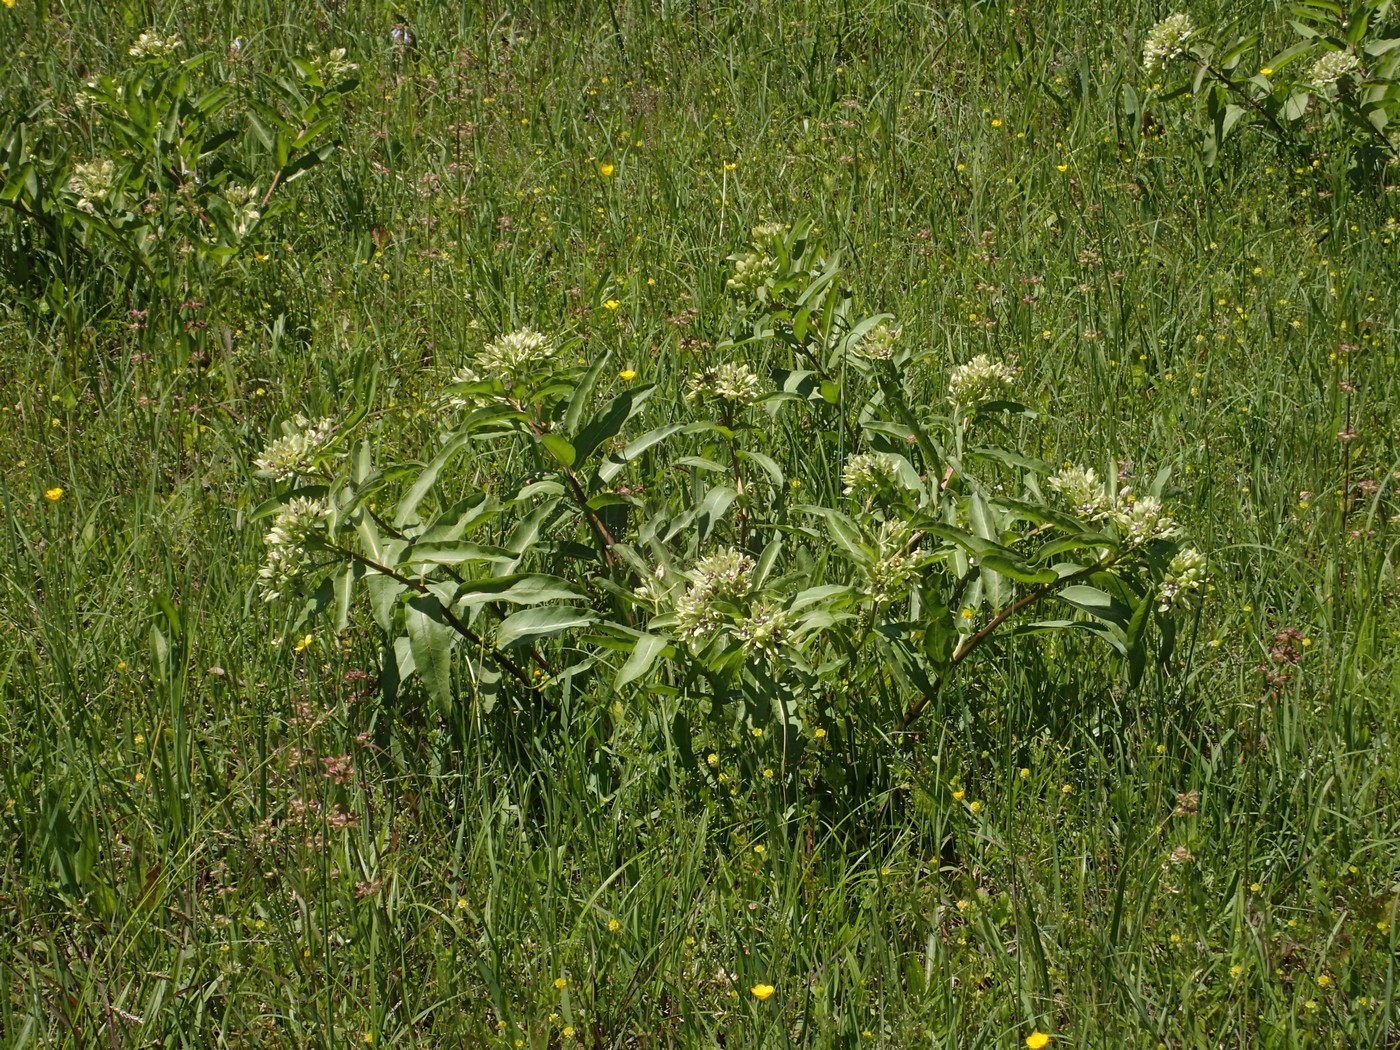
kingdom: Plantae
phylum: Tracheophyta
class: Magnoliopsida
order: Gentianales
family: Apocynaceae
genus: Asclepias
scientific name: Asclepias viridis
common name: Antelope-horns
